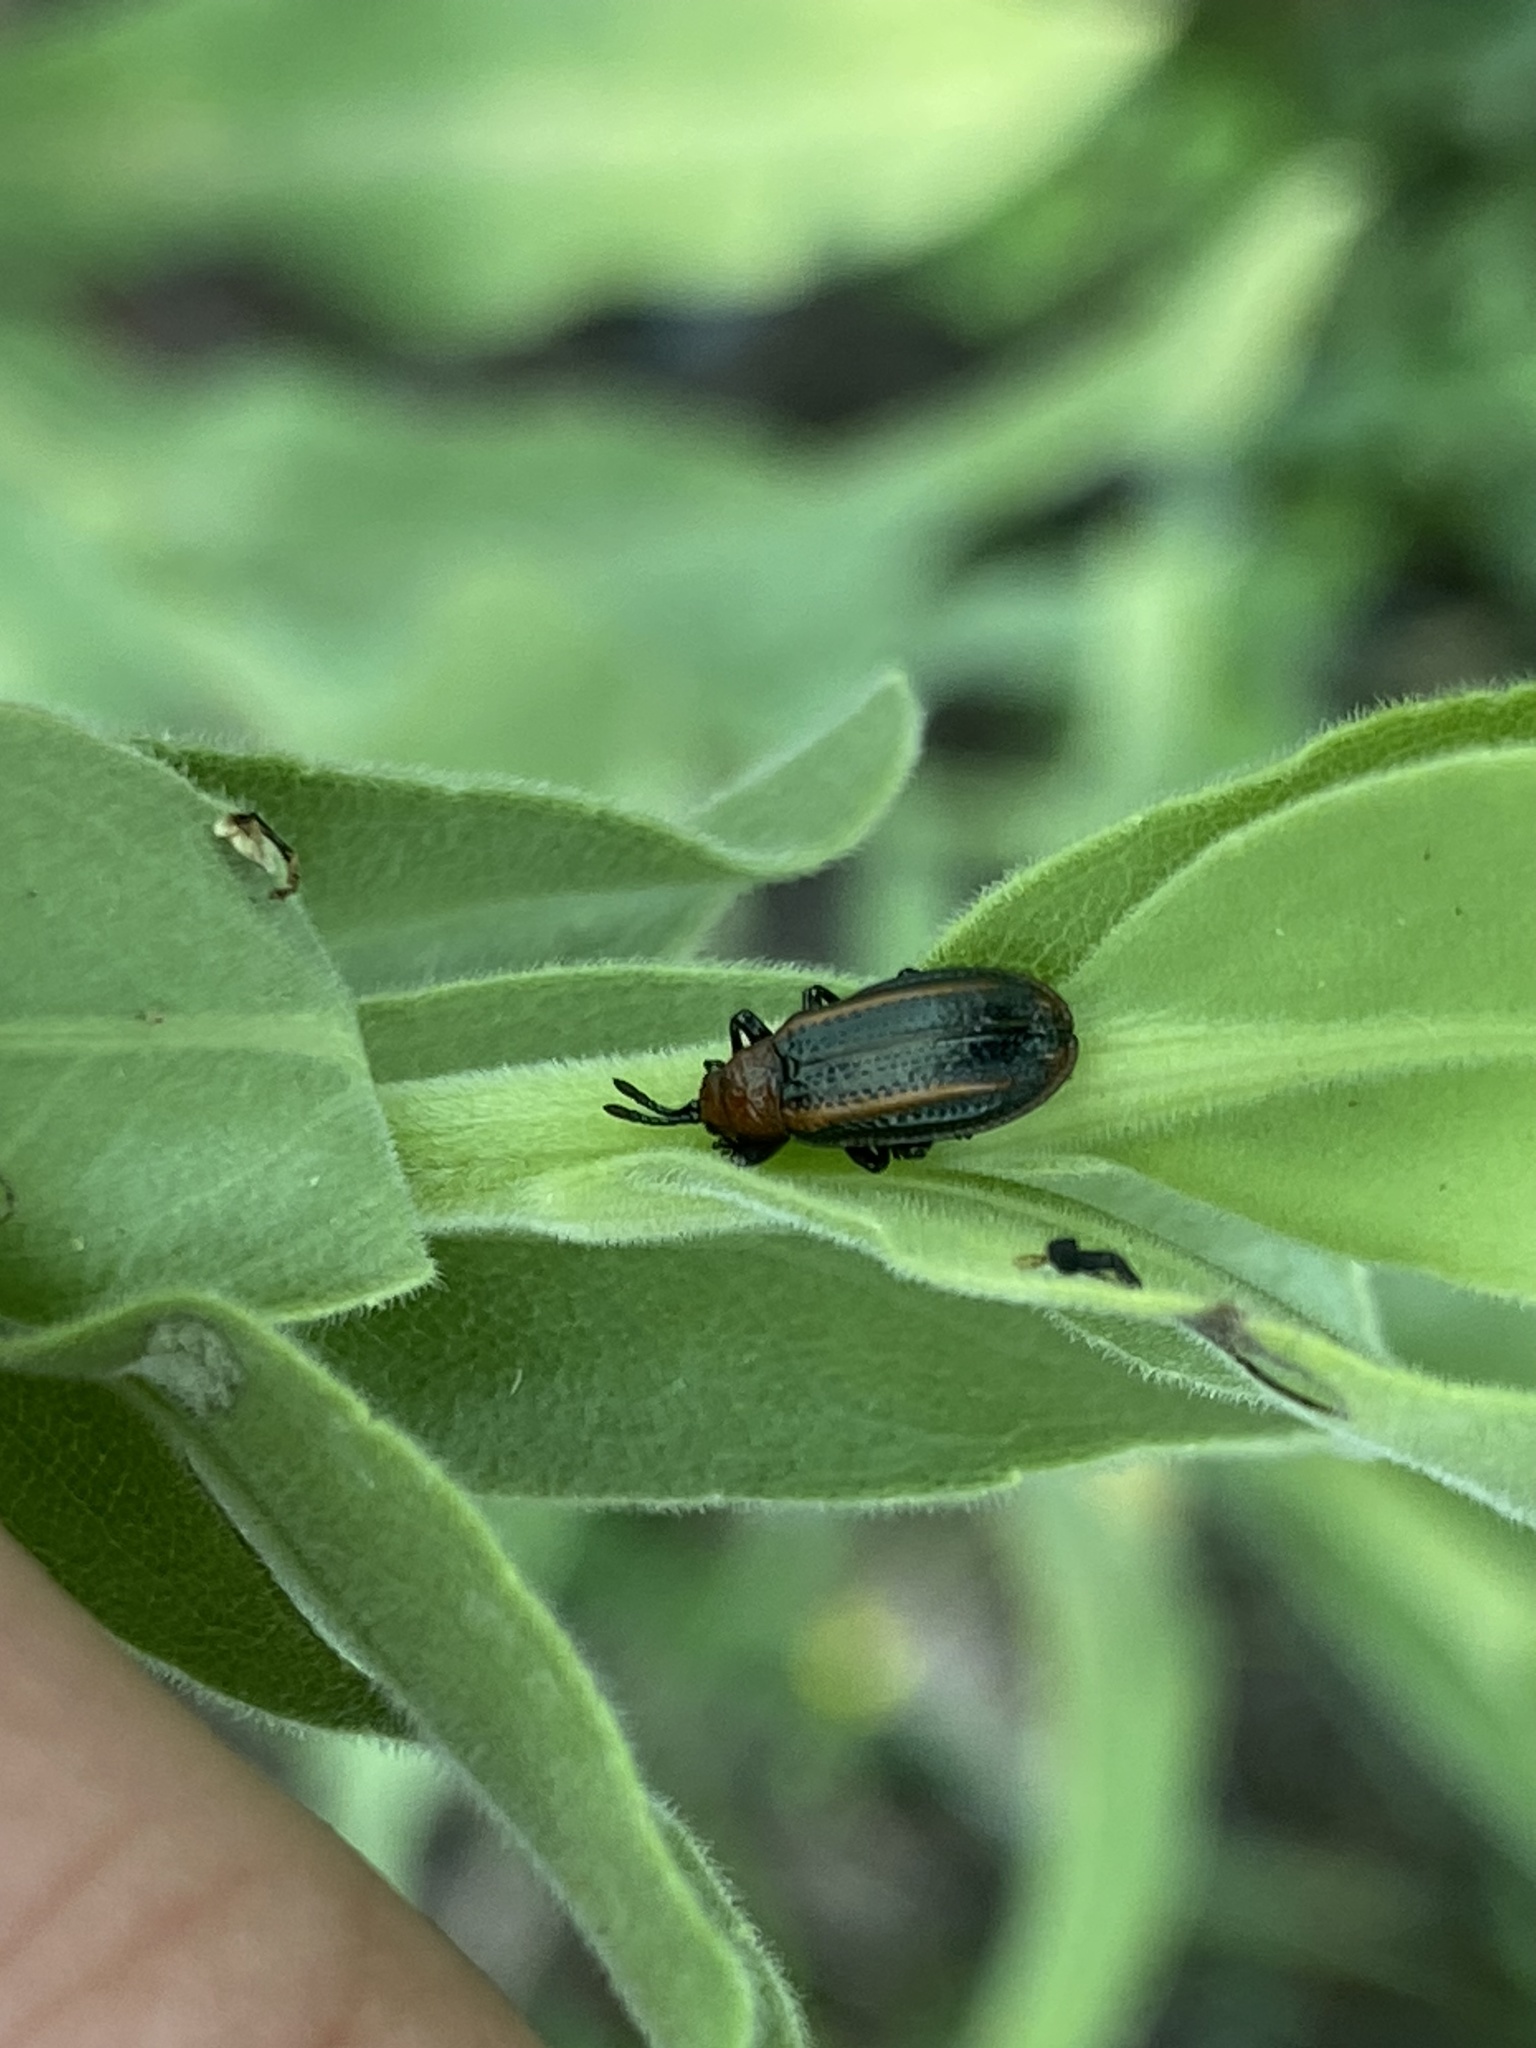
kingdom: Animalia
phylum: Arthropoda
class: Insecta
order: Coleoptera
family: Chrysomelidae
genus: Microrhopala
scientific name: Microrhopala vittata
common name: Goldenrod leaf miner beetle
